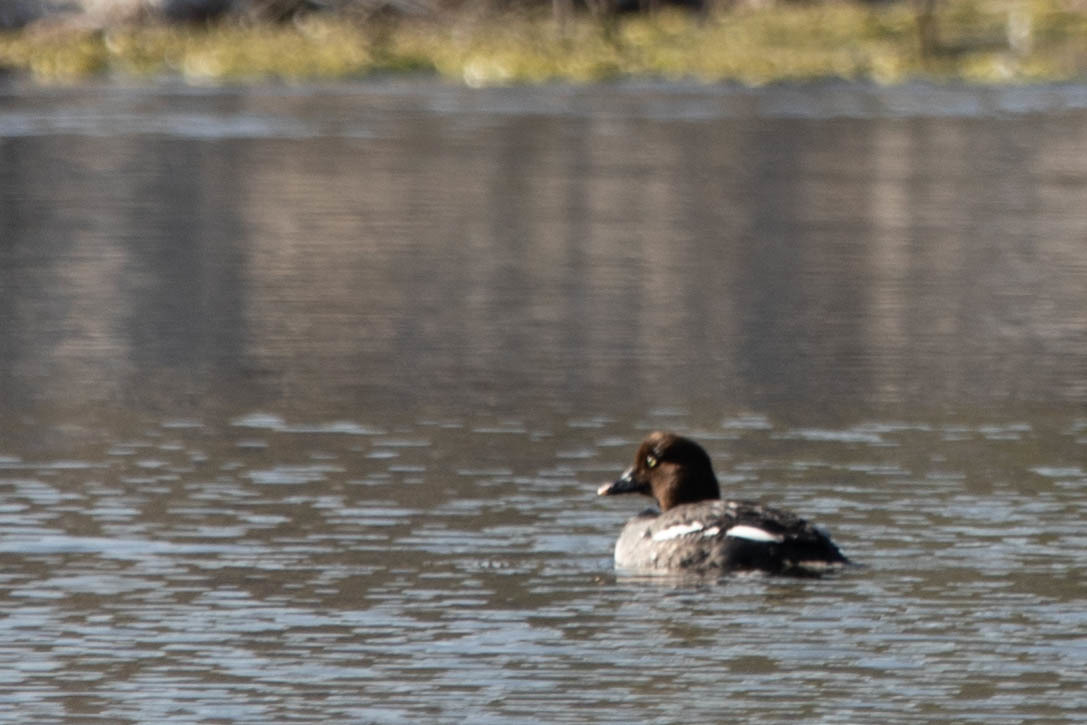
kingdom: Animalia
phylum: Chordata
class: Aves
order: Anseriformes
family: Anatidae
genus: Bucephala
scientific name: Bucephala clangula
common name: Common goldeneye
